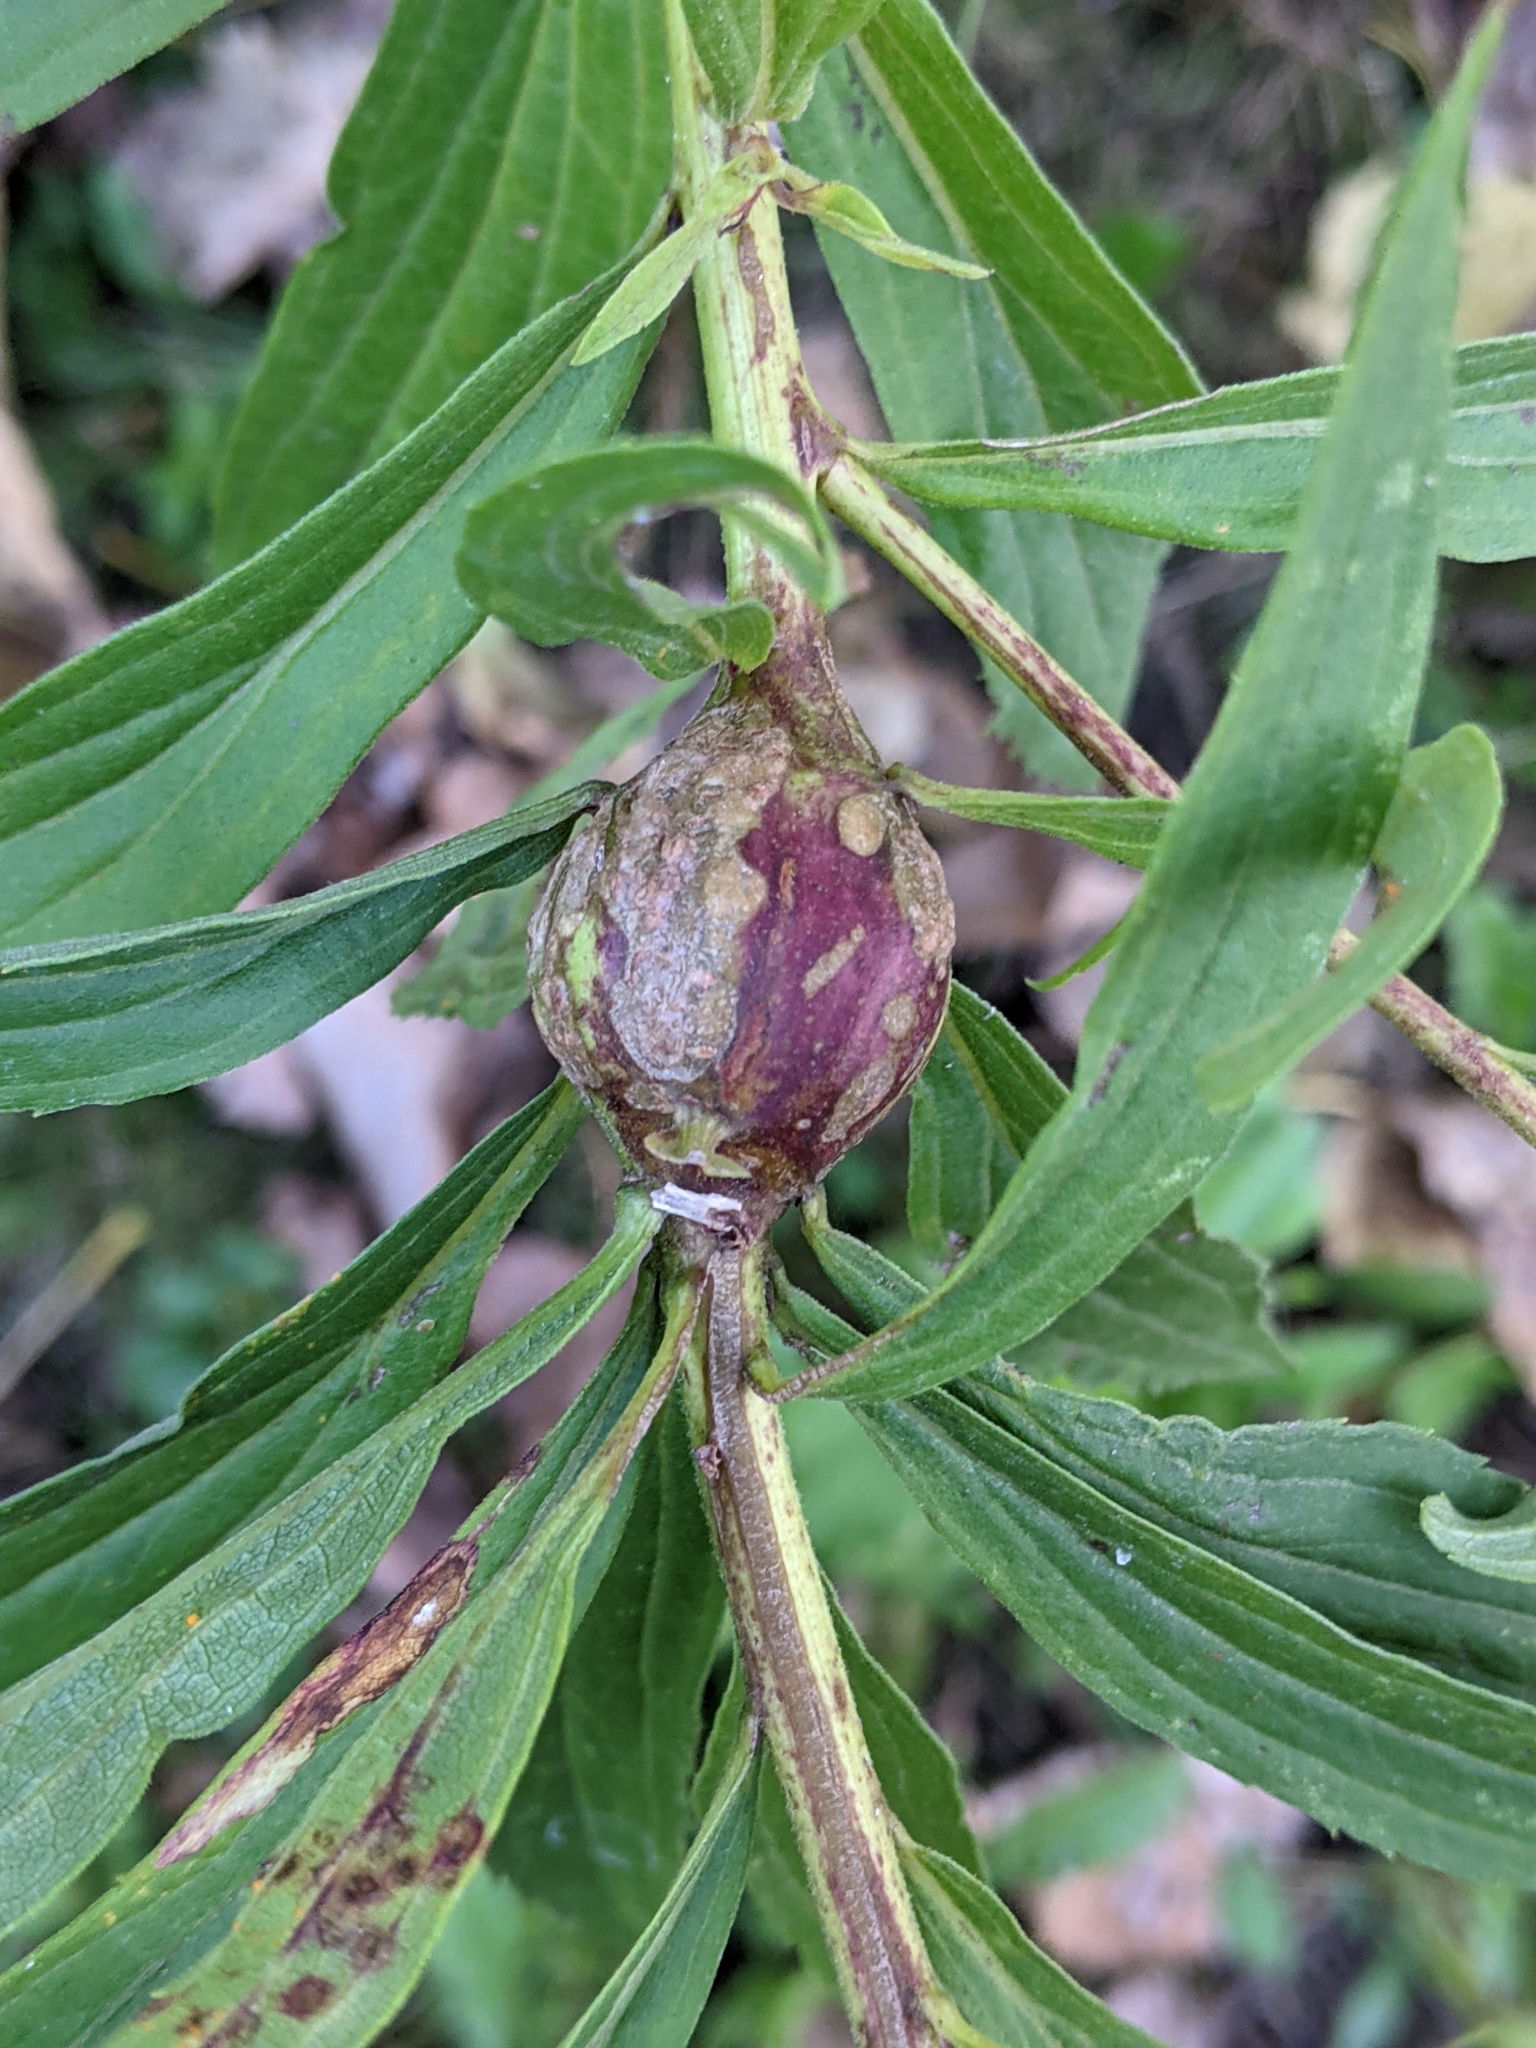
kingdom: Animalia
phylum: Arthropoda
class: Insecta
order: Diptera
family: Tephritidae
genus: Eurosta
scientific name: Eurosta solidaginis
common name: Goldenrod gall fly
